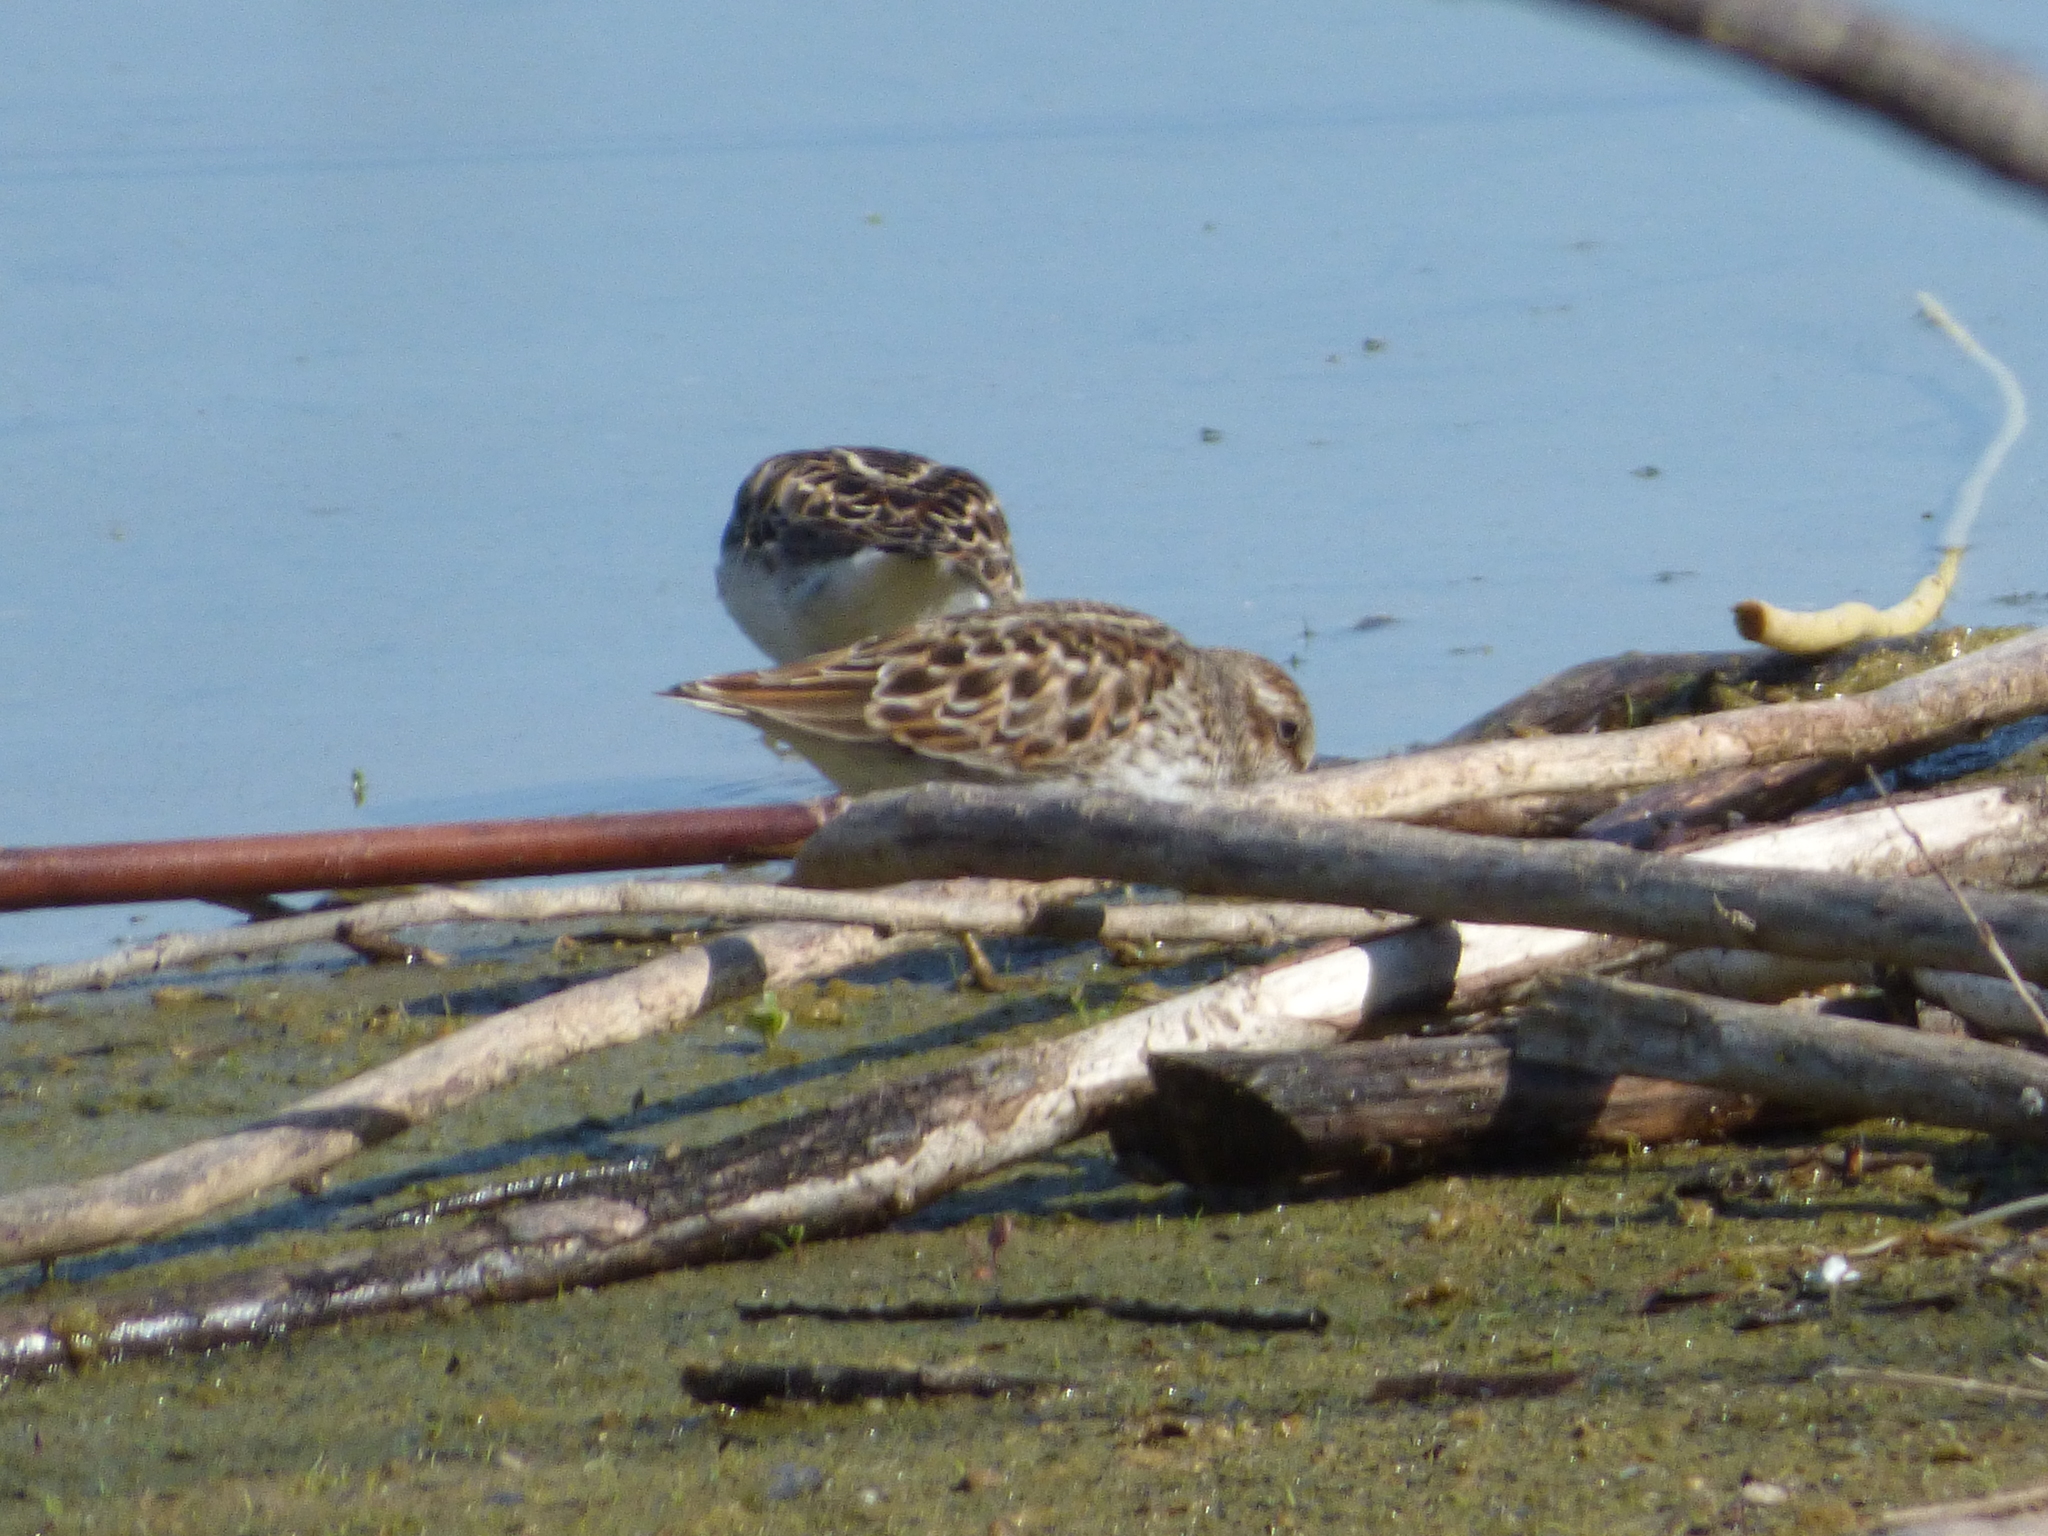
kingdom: Animalia
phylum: Chordata
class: Aves
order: Charadriiformes
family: Scolopacidae
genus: Calidris
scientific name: Calidris minutilla
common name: Least sandpiper
